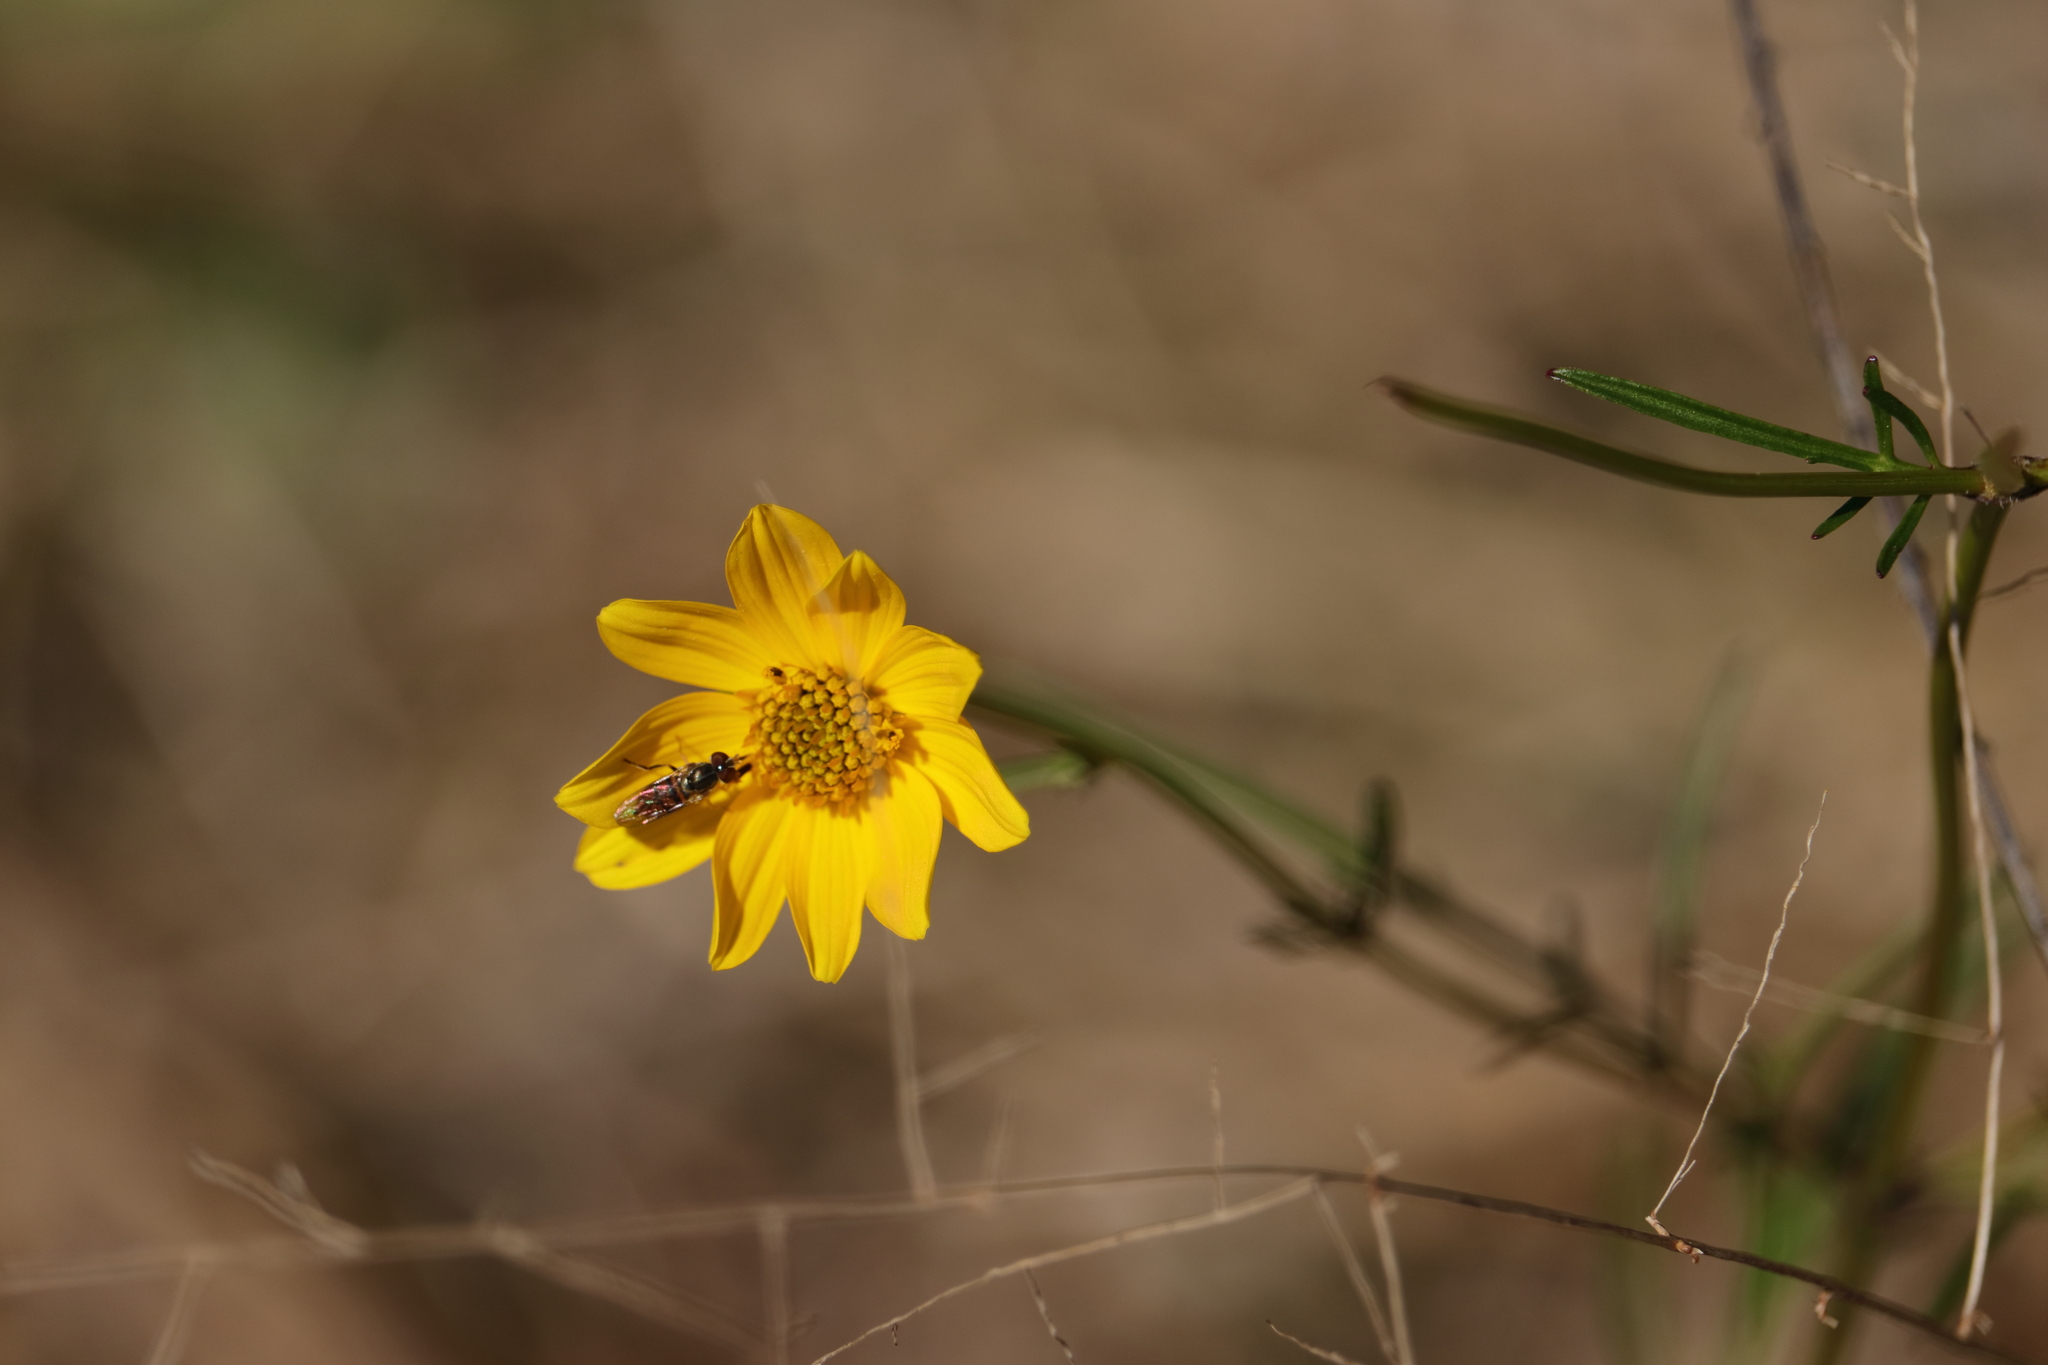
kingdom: Animalia
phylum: Arthropoda
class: Insecta
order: Diptera
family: Syrphidae
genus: Toxomerus
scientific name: Toxomerus
